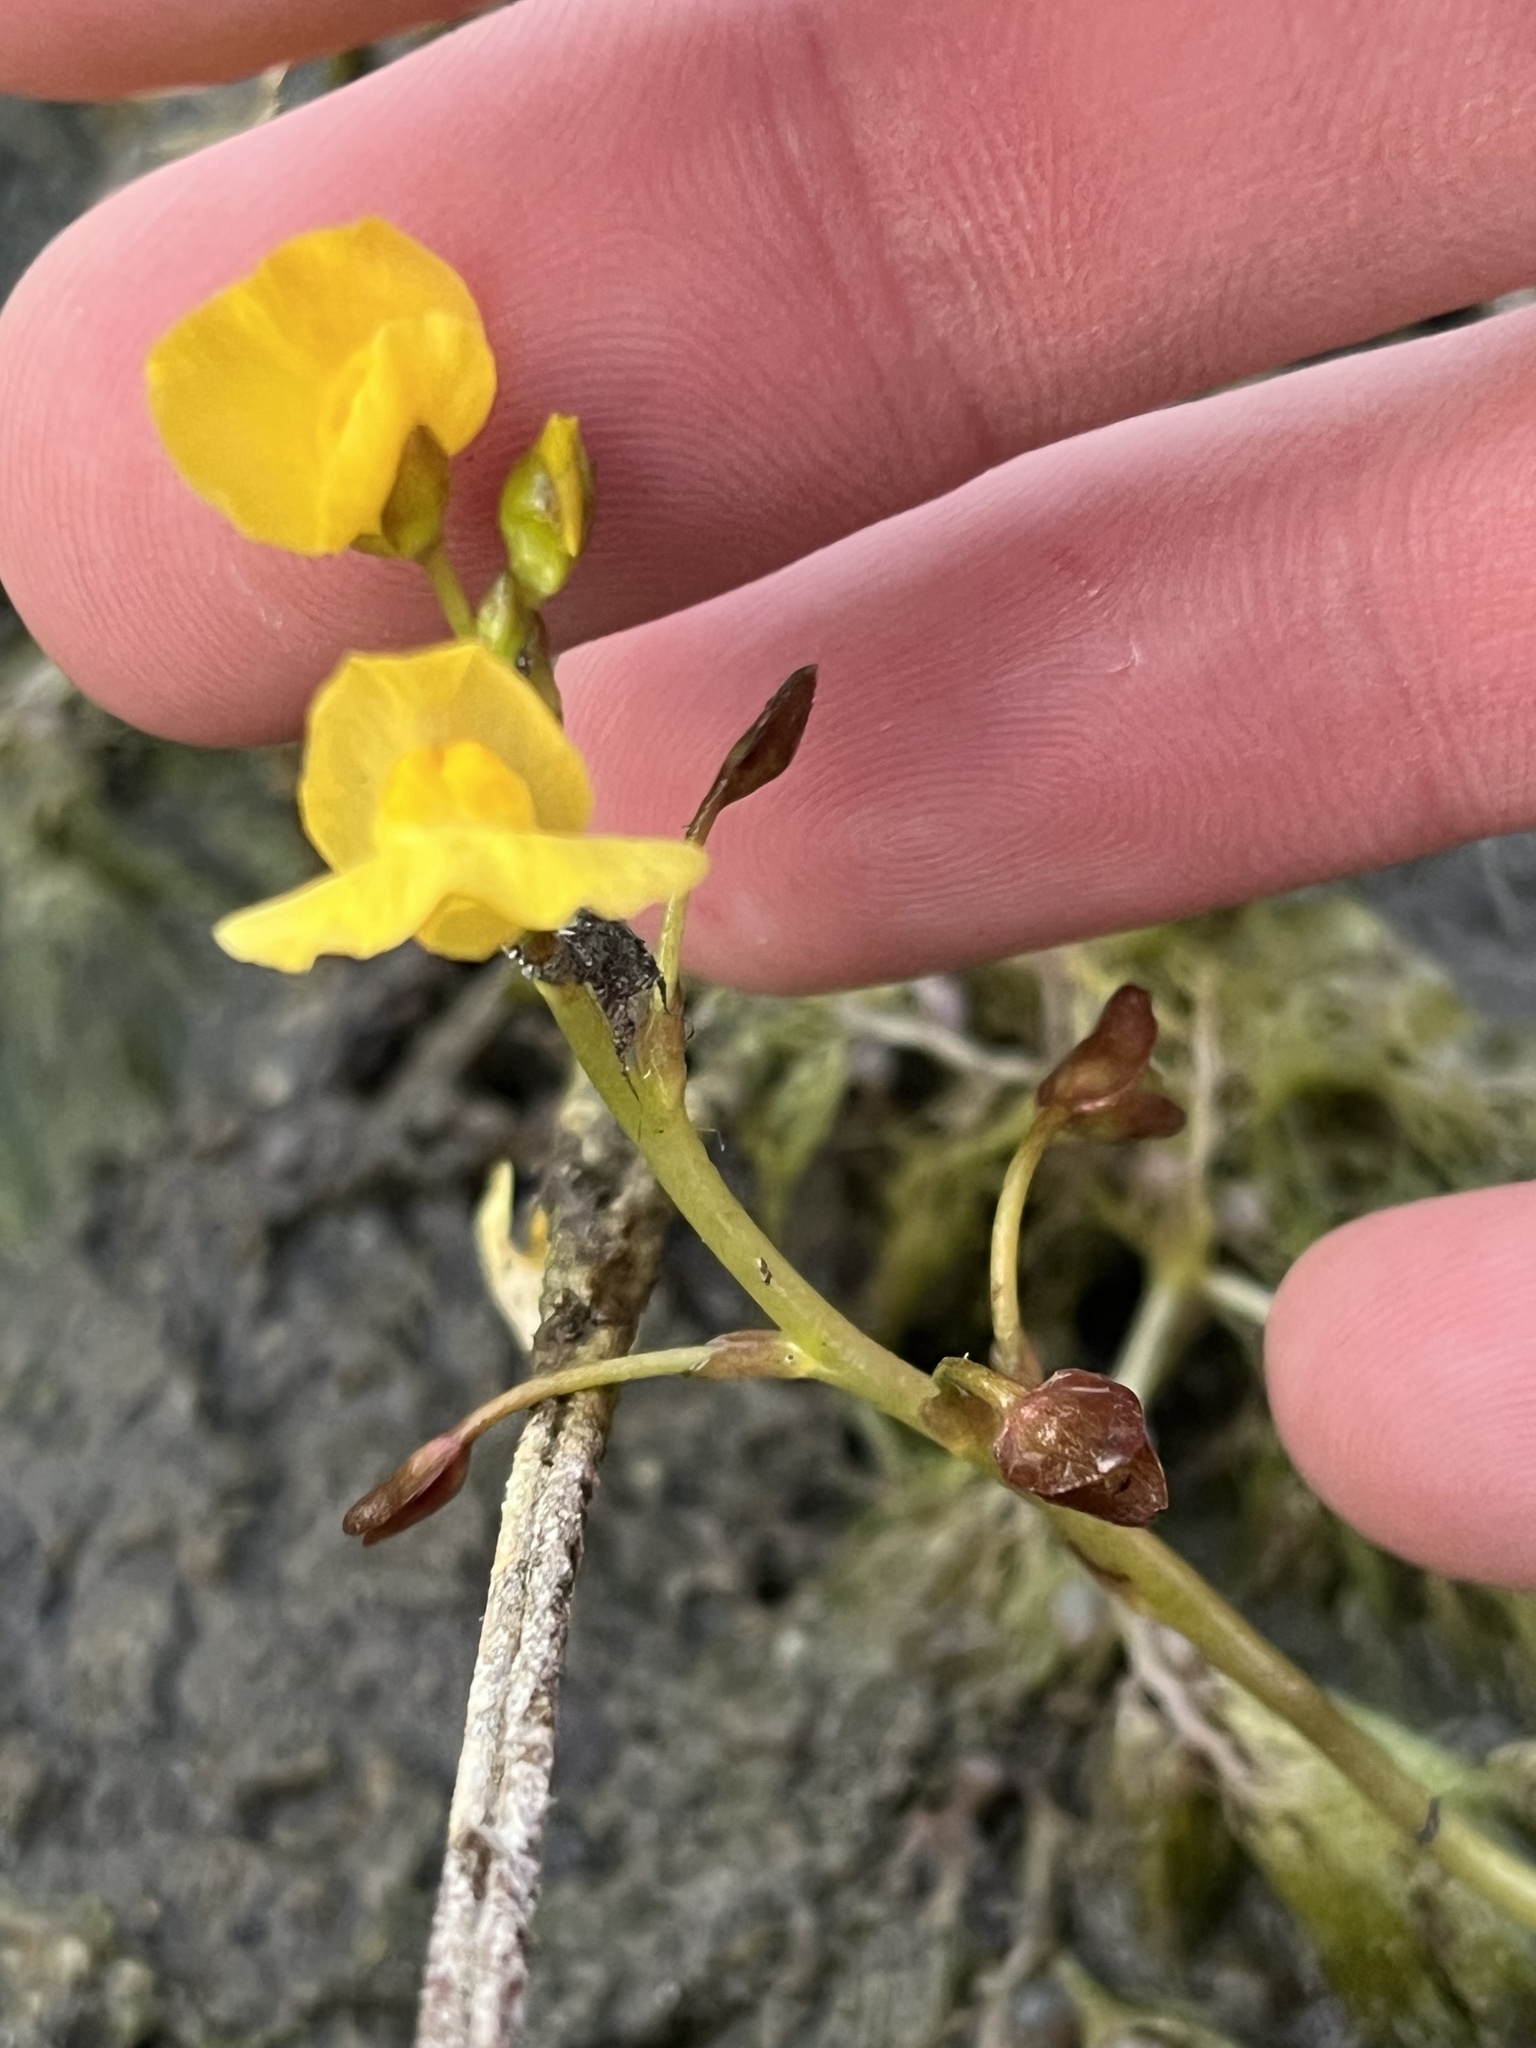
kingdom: Plantae
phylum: Tracheophyta
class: Magnoliopsida
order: Lamiales
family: Lentibulariaceae
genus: Utricularia
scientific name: Utricularia foliosa
